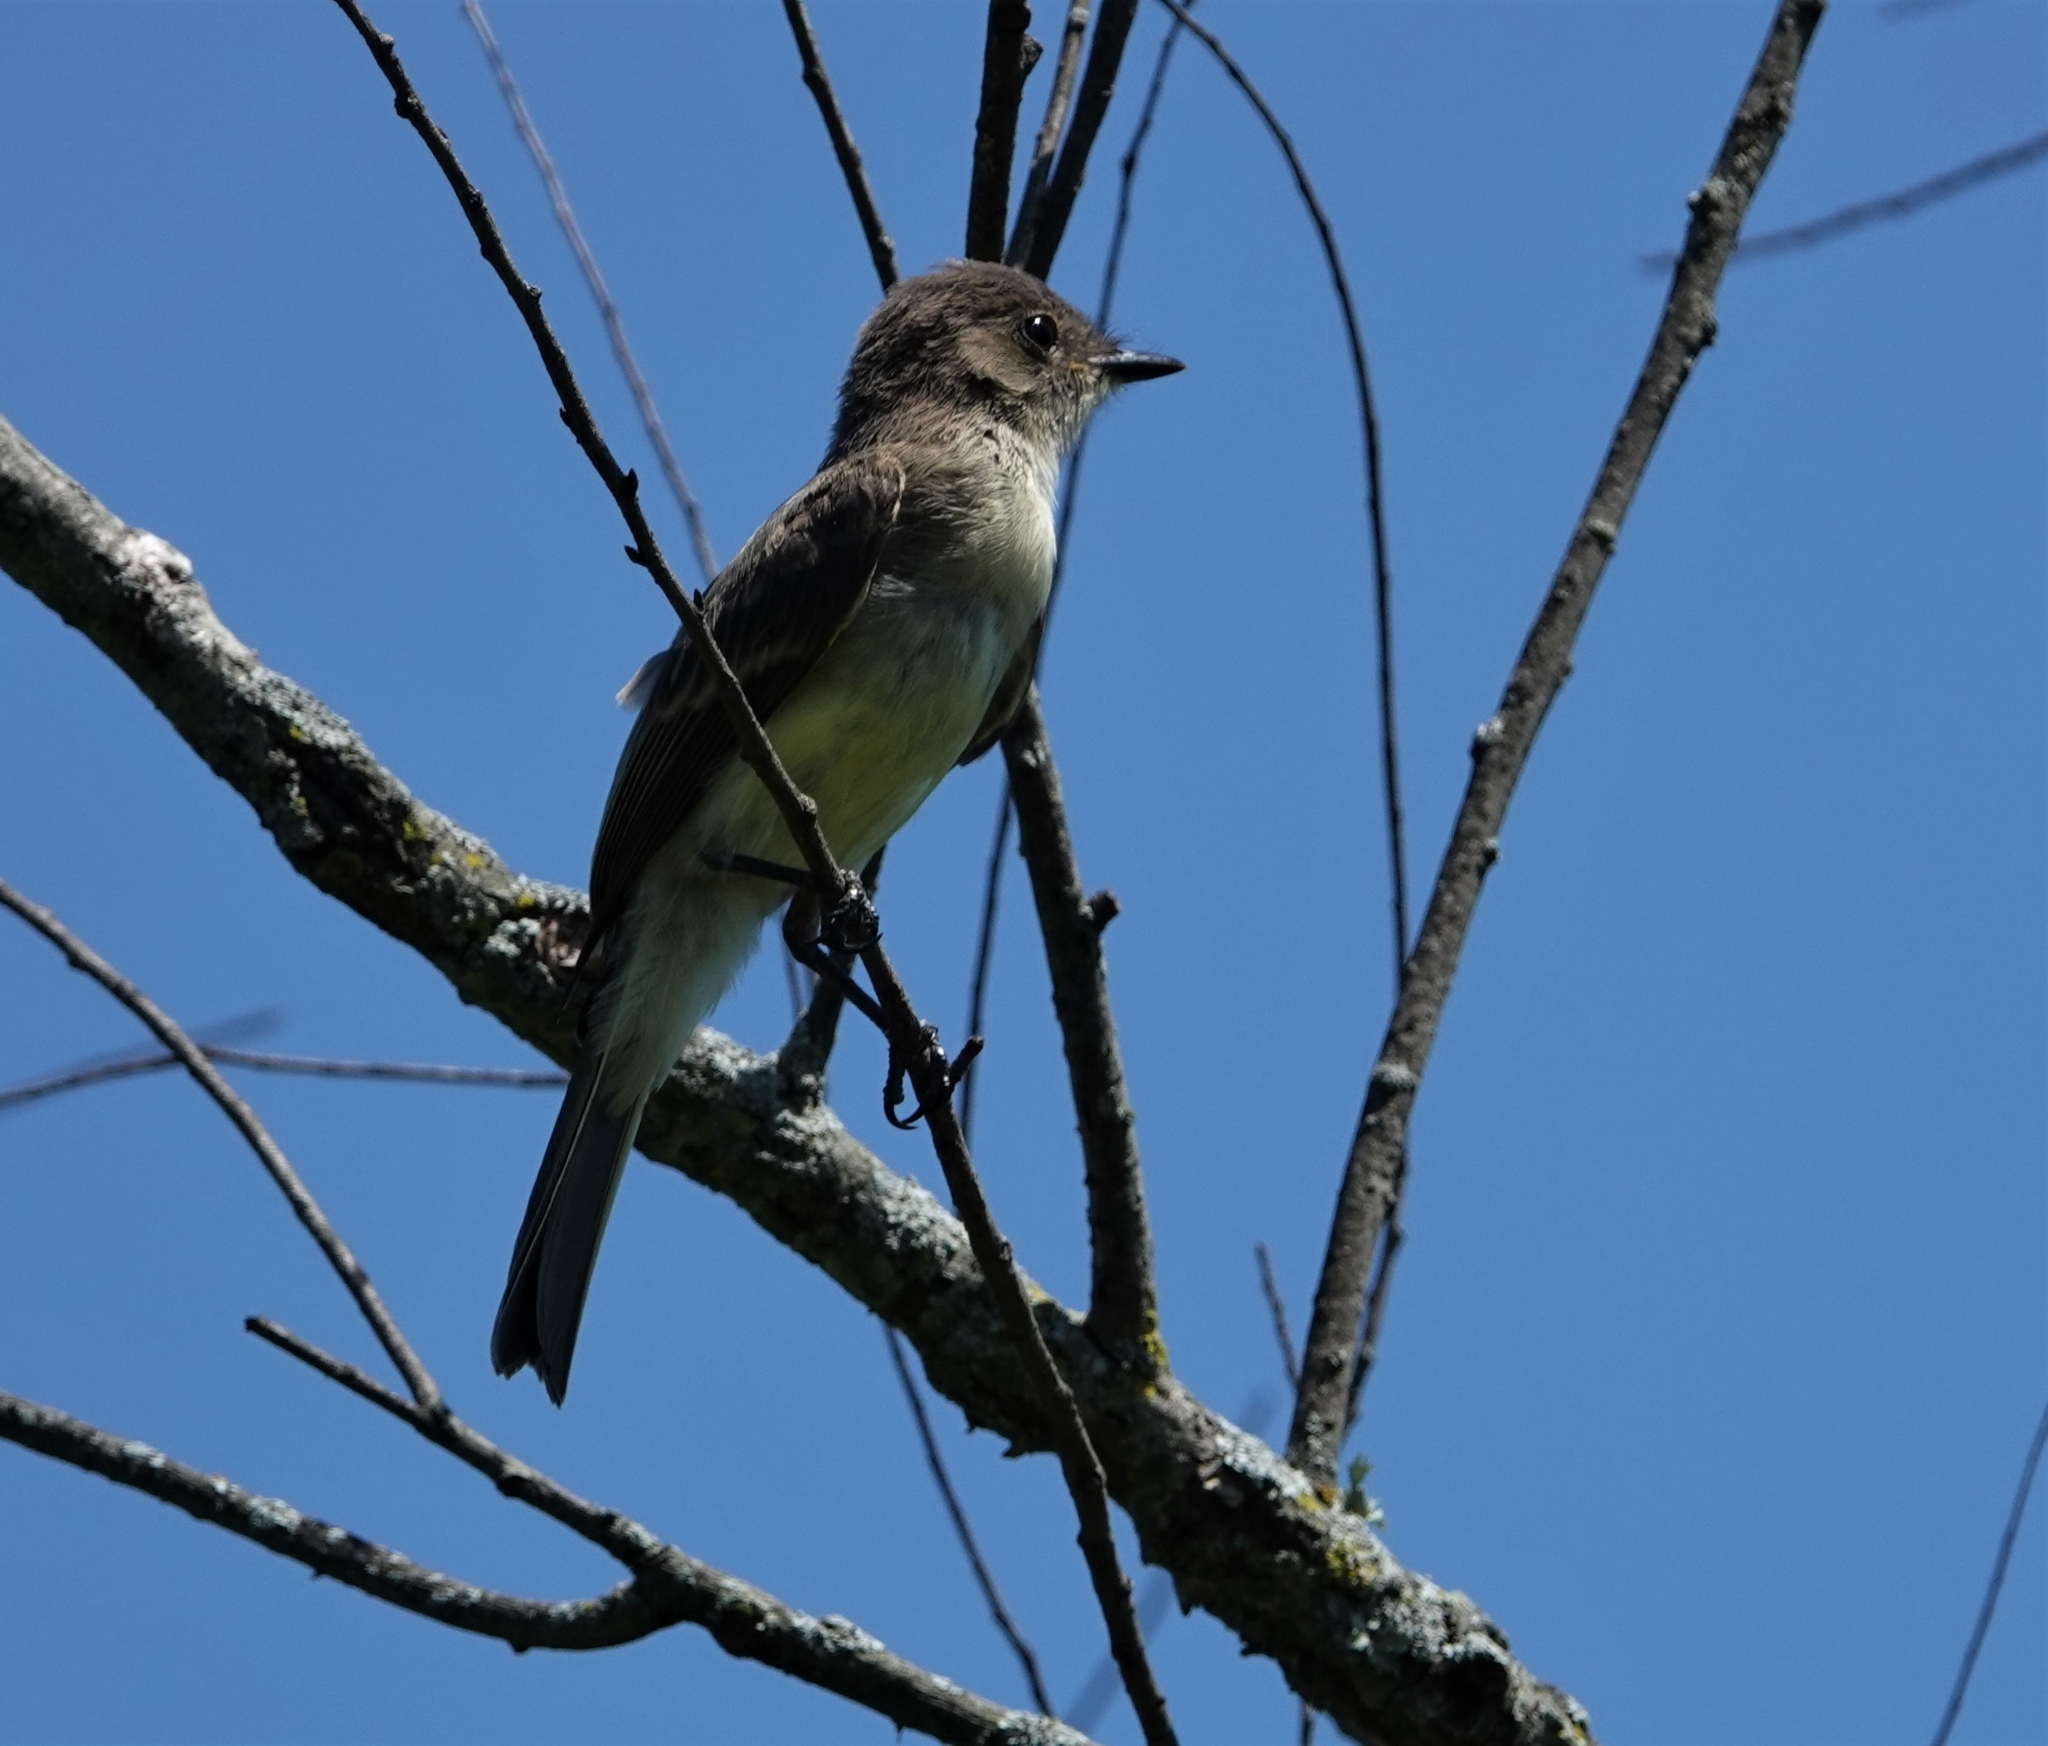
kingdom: Animalia
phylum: Chordata
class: Aves
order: Passeriformes
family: Tyrannidae
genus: Sayornis
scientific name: Sayornis phoebe
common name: Eastern phoebe
